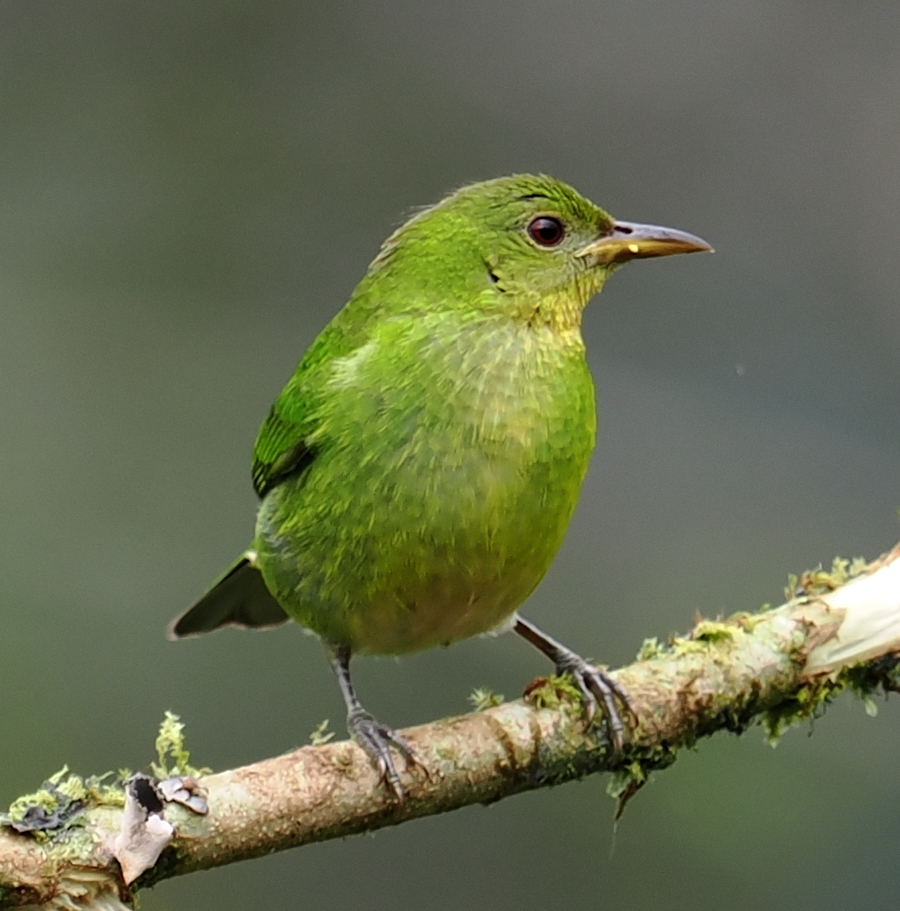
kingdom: Animalia
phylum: Chordata
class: Aves
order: Passeriformes
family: Thraupidae
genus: Chlorophanes
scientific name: Chlorophanes spiza
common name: Green honeycreeper
